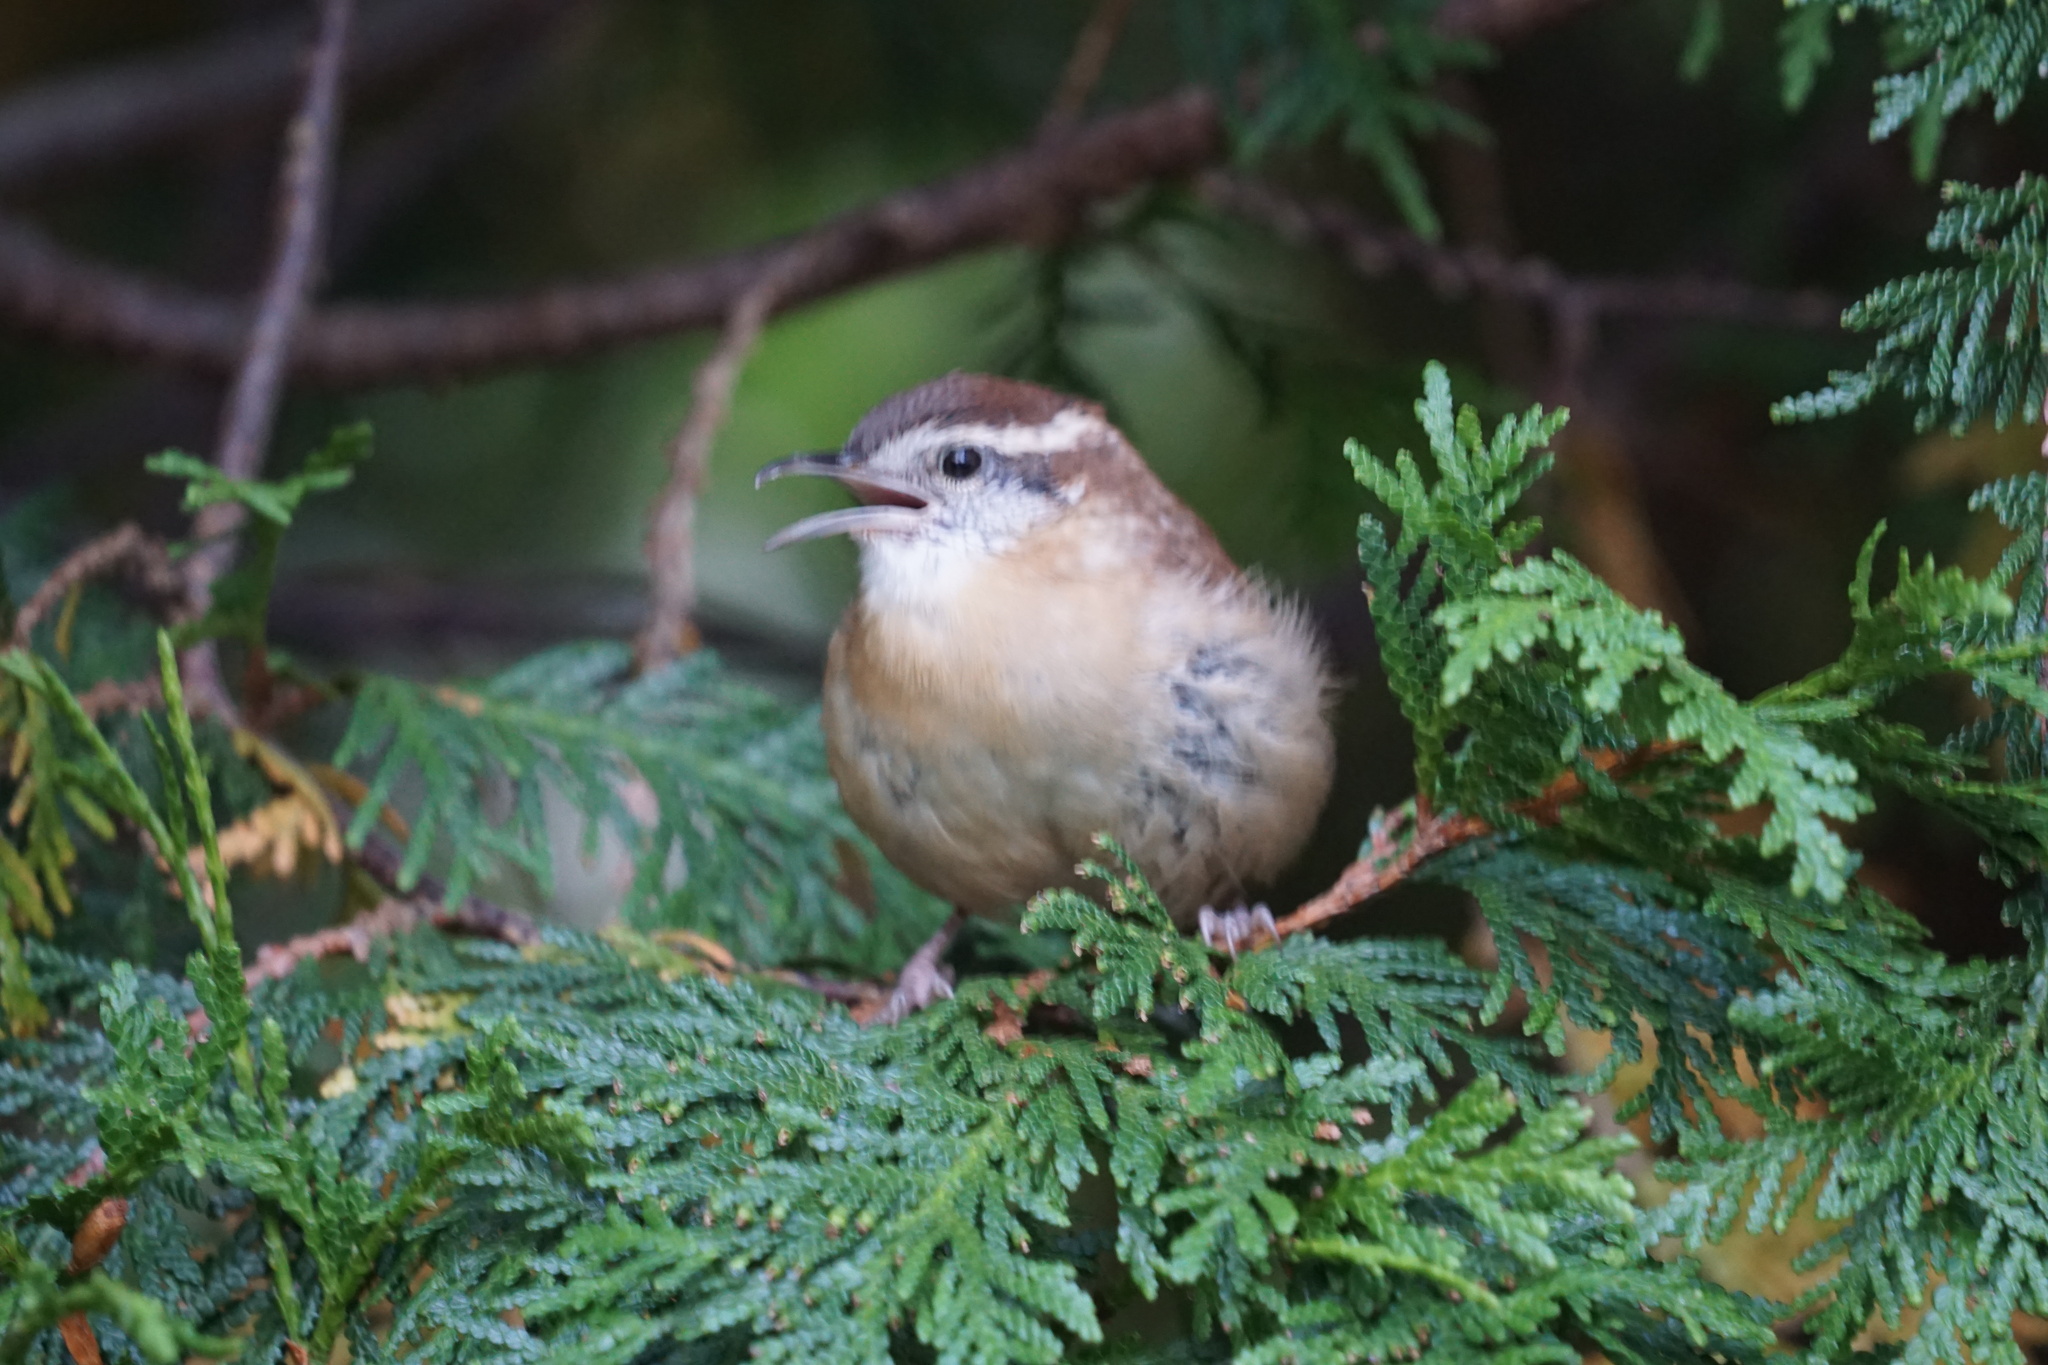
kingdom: Animalia
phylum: Chordata
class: Aves
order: Passeriformes
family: Troglodytidae
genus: Thryothorus
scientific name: Thryothorus ludovicianus
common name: Carolina wren
